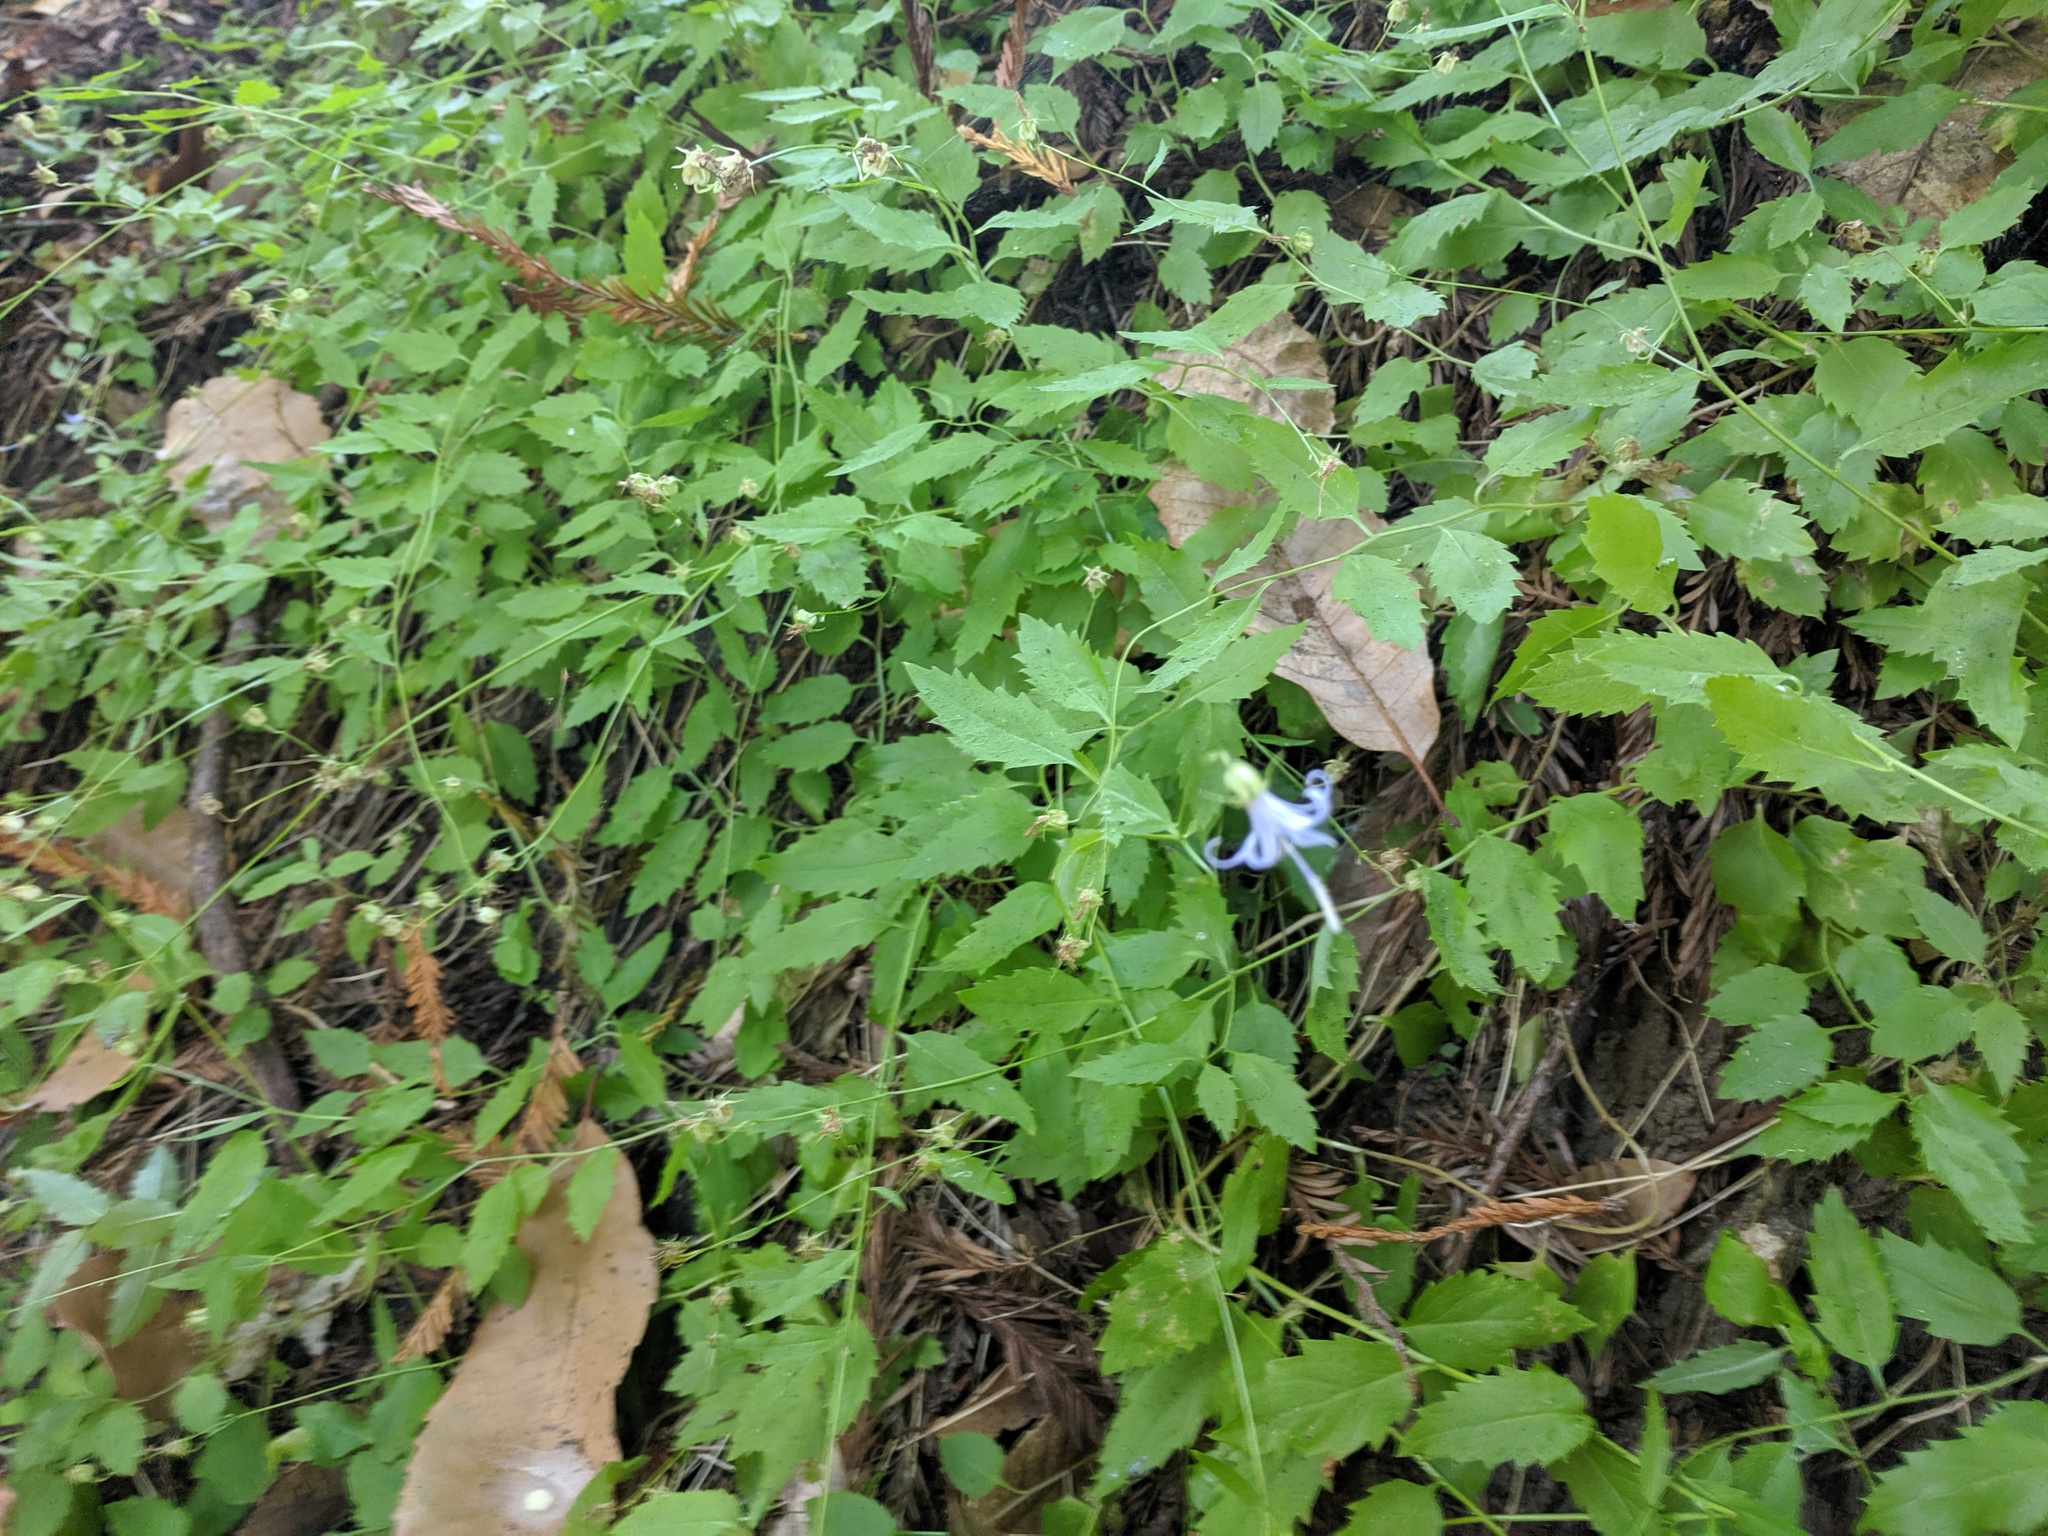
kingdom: Plantae
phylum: Tracheophyta
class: Magnoliopsida
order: Asterales
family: Campanulaceae
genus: Smithiastrum
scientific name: Smithiastrum prenanthoides
